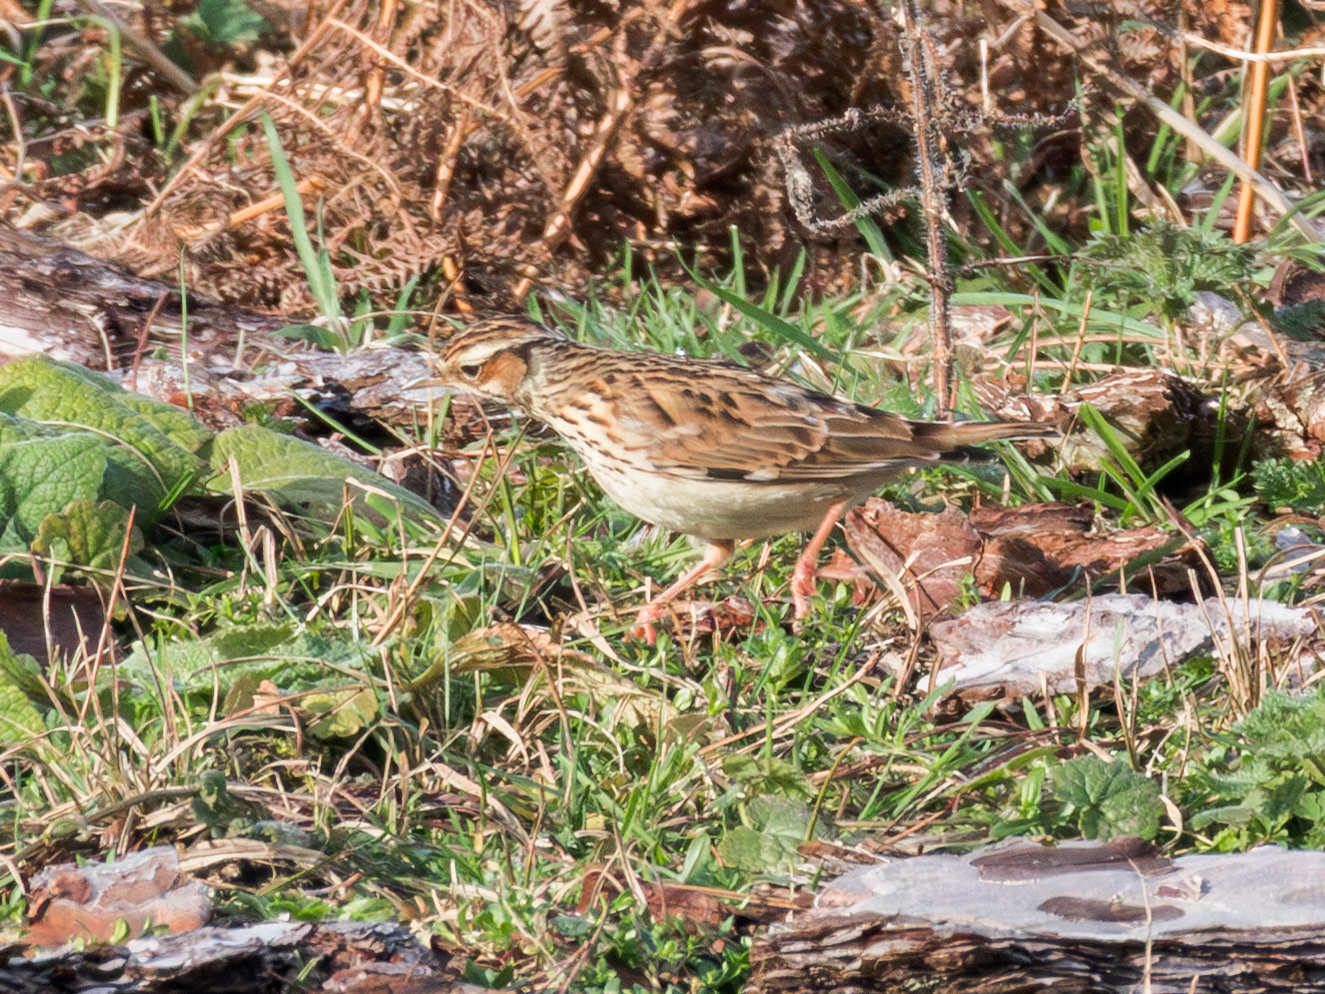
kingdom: Animalia
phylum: Chordata
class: Aves
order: Passeriformes
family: Alaudidae
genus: Lullula
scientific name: Lullula arborea
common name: Woodlark
